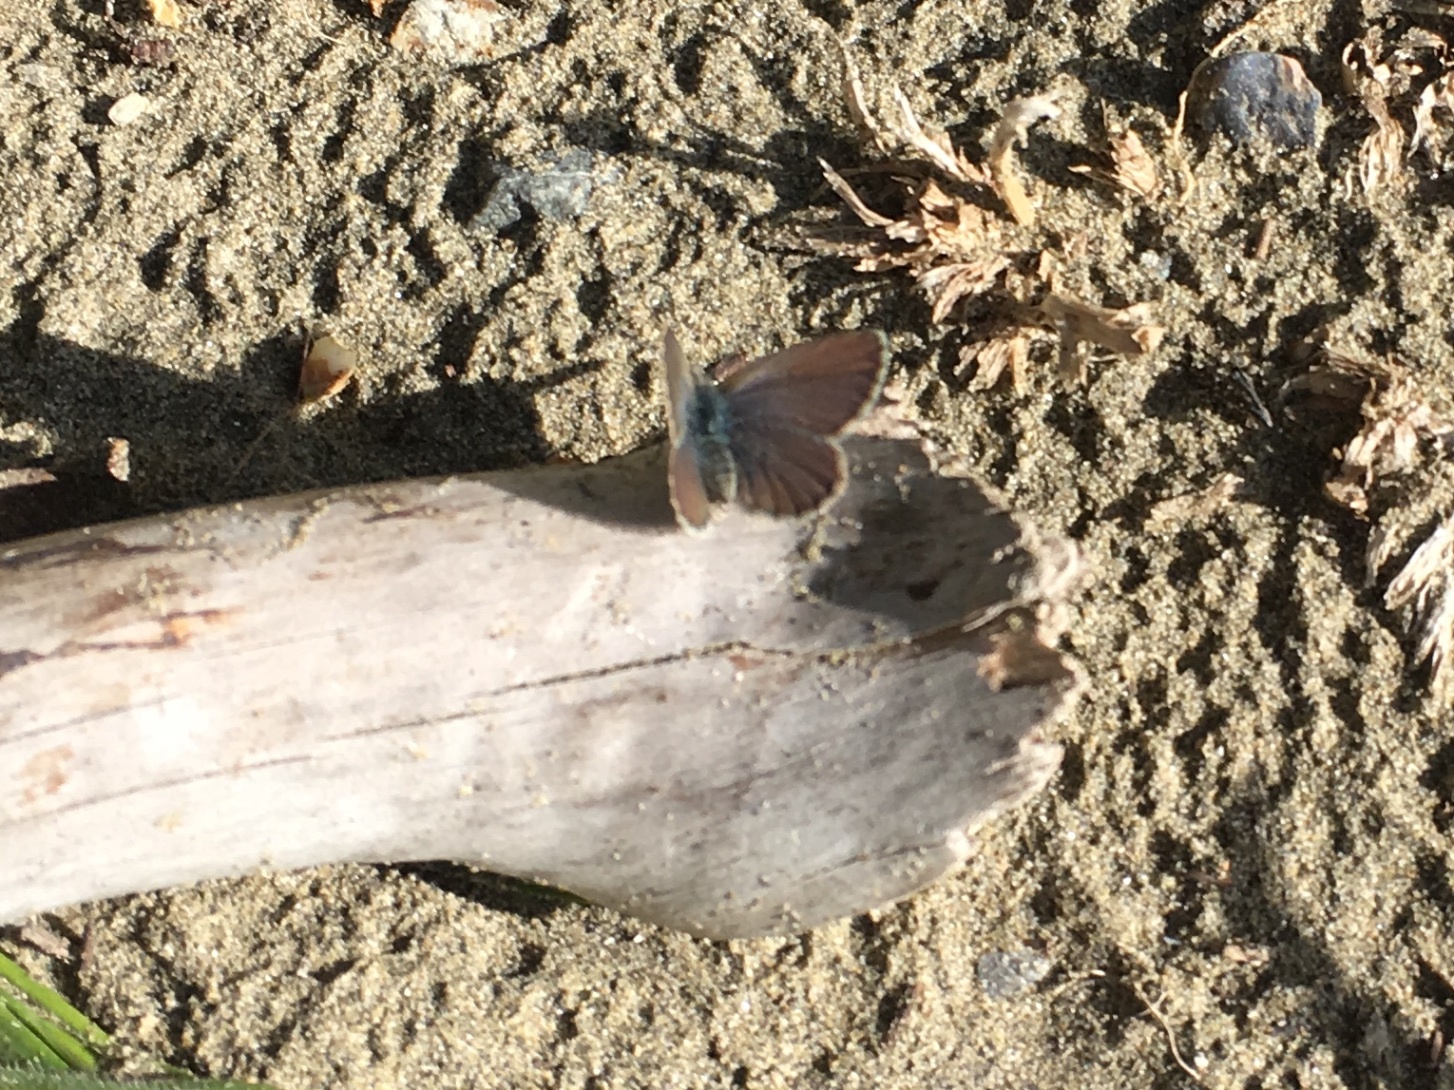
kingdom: Animalia
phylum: Arthropoda
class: Insecta
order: Lepidoptera
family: Lycaenidae
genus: Zizina
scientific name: Zizina oxleyi
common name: Southern blue
